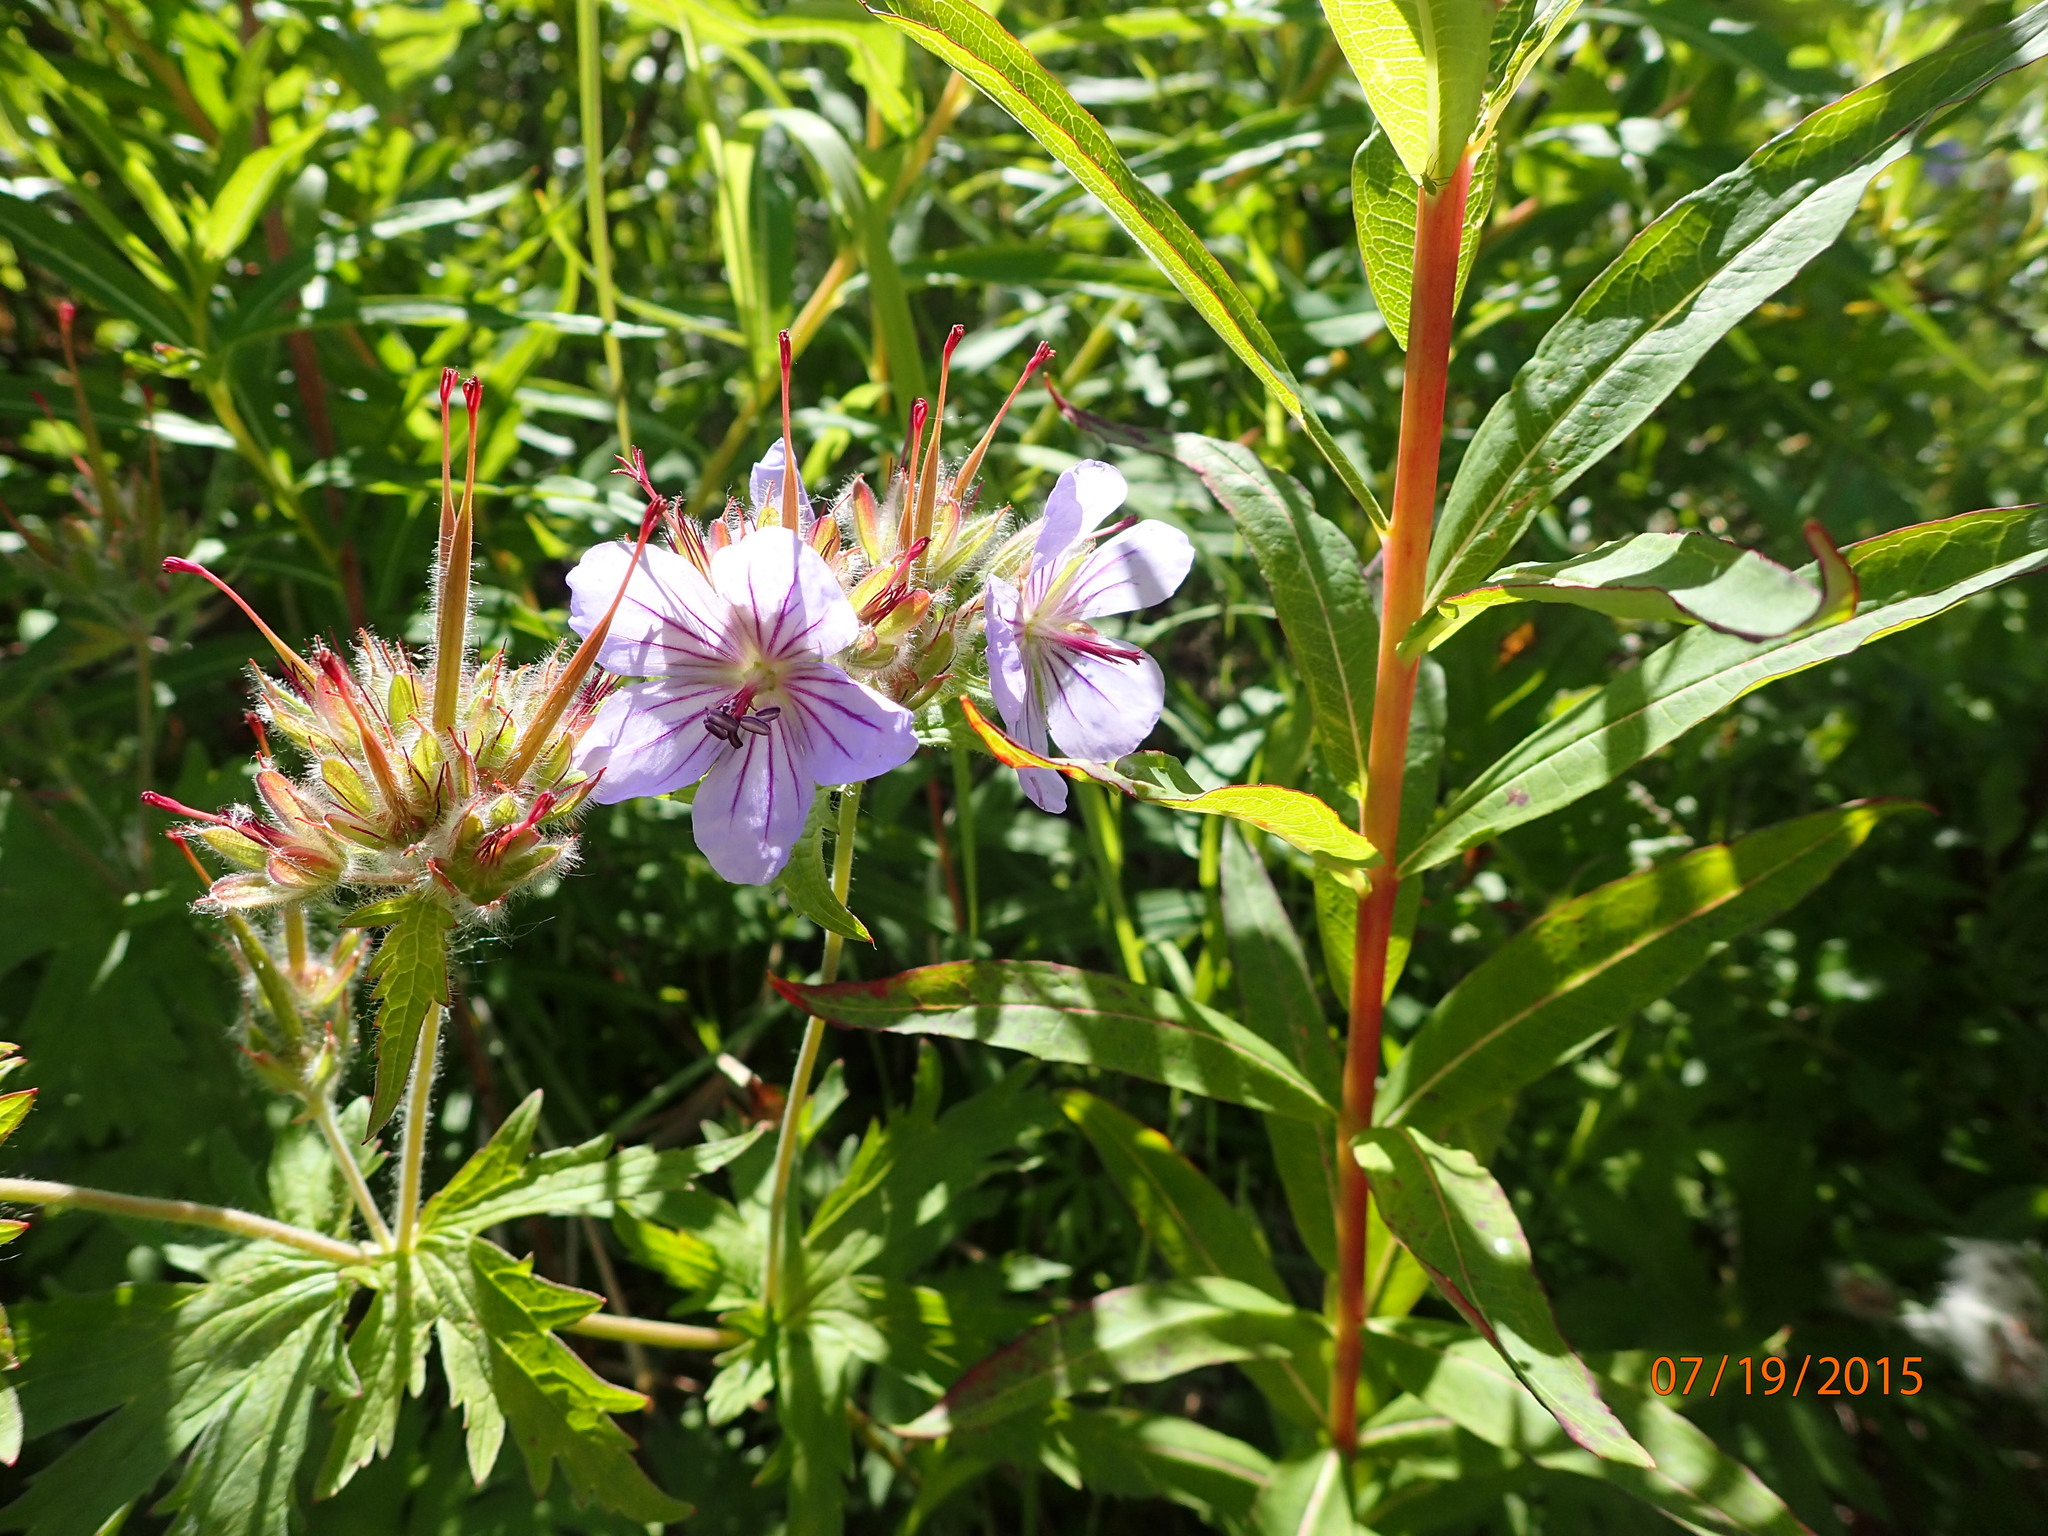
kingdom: Plantae
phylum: Tracheophyta
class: Magnoliopsida
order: Geraniales
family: Geraniaceae
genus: Geranium
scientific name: Geranium erianthum
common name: Northern crane's-bill
